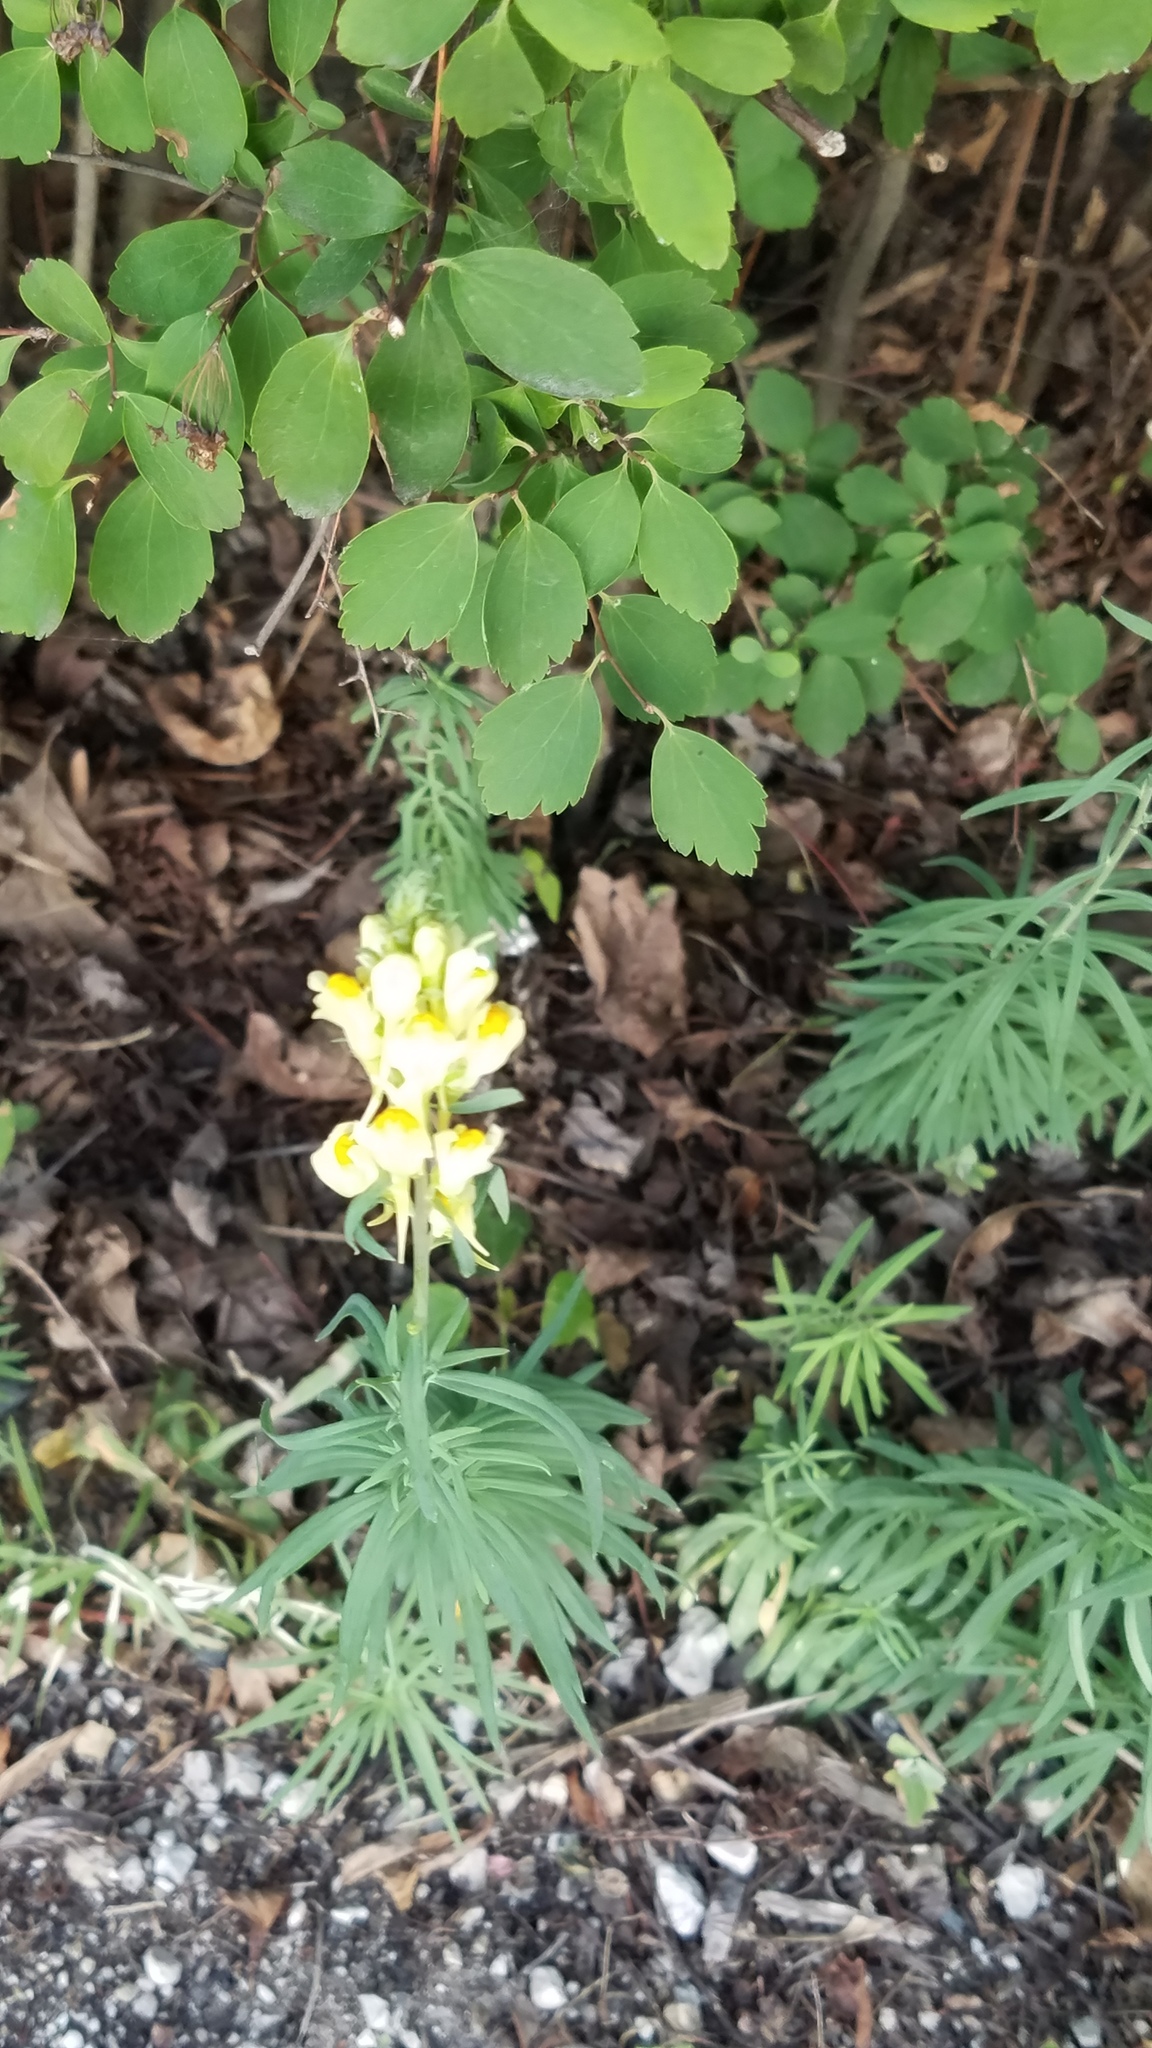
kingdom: Plantae
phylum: Tracheophyta
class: Magnoliopsida
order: Lamiales
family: Plantaginaceae
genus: Linaria
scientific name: Linaria vulgaris
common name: Butter and eggs
